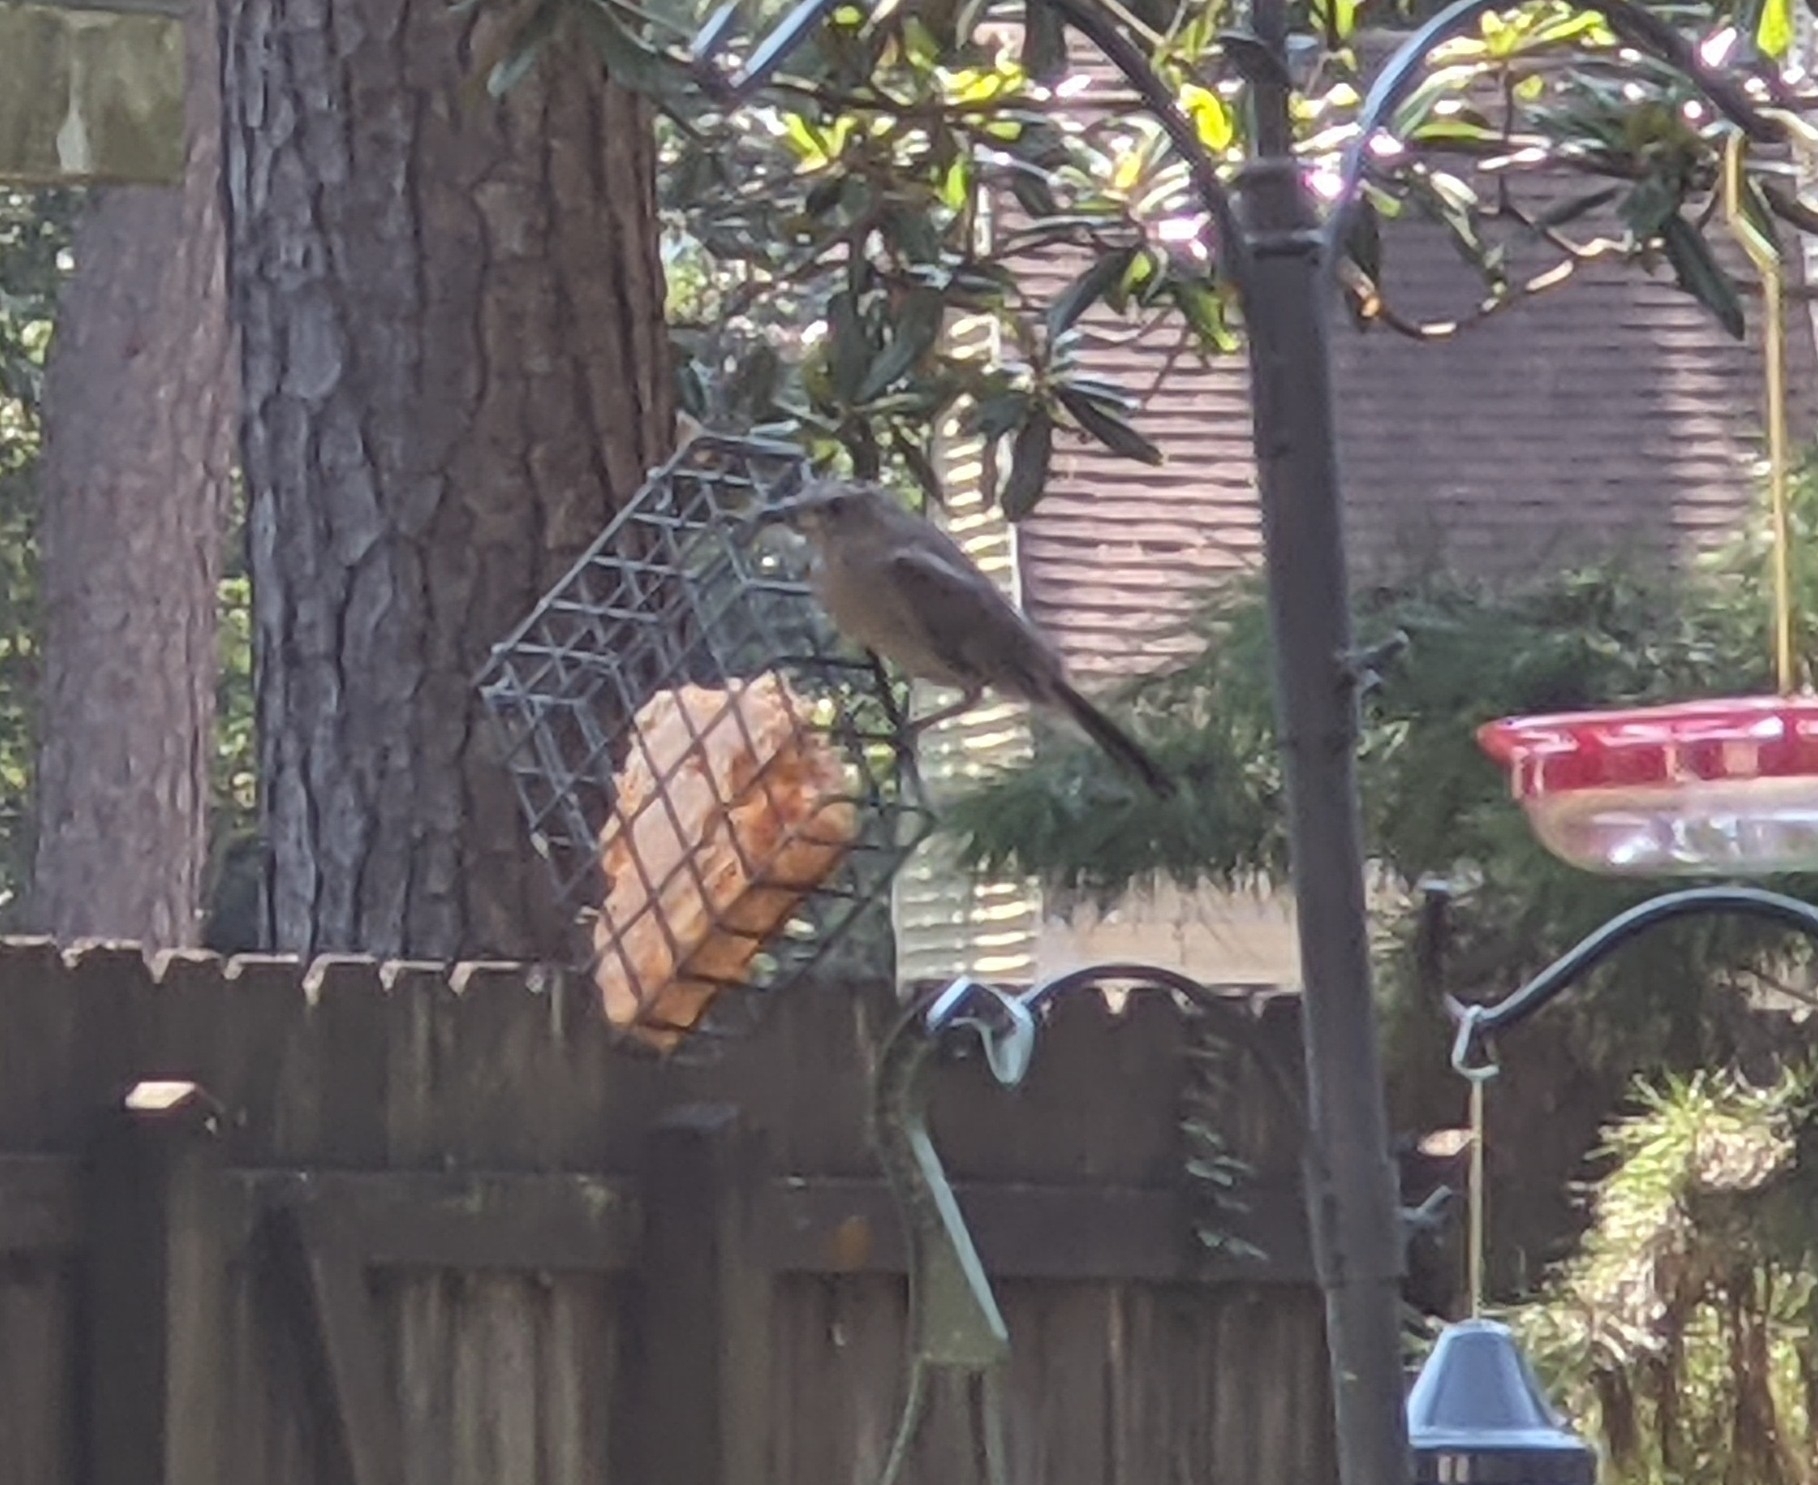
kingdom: Animalia
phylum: Chordata
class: Aves
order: Passeriformes
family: Mimidae
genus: Dumetella
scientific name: Dumetella carolinensis
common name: Gray catbird
